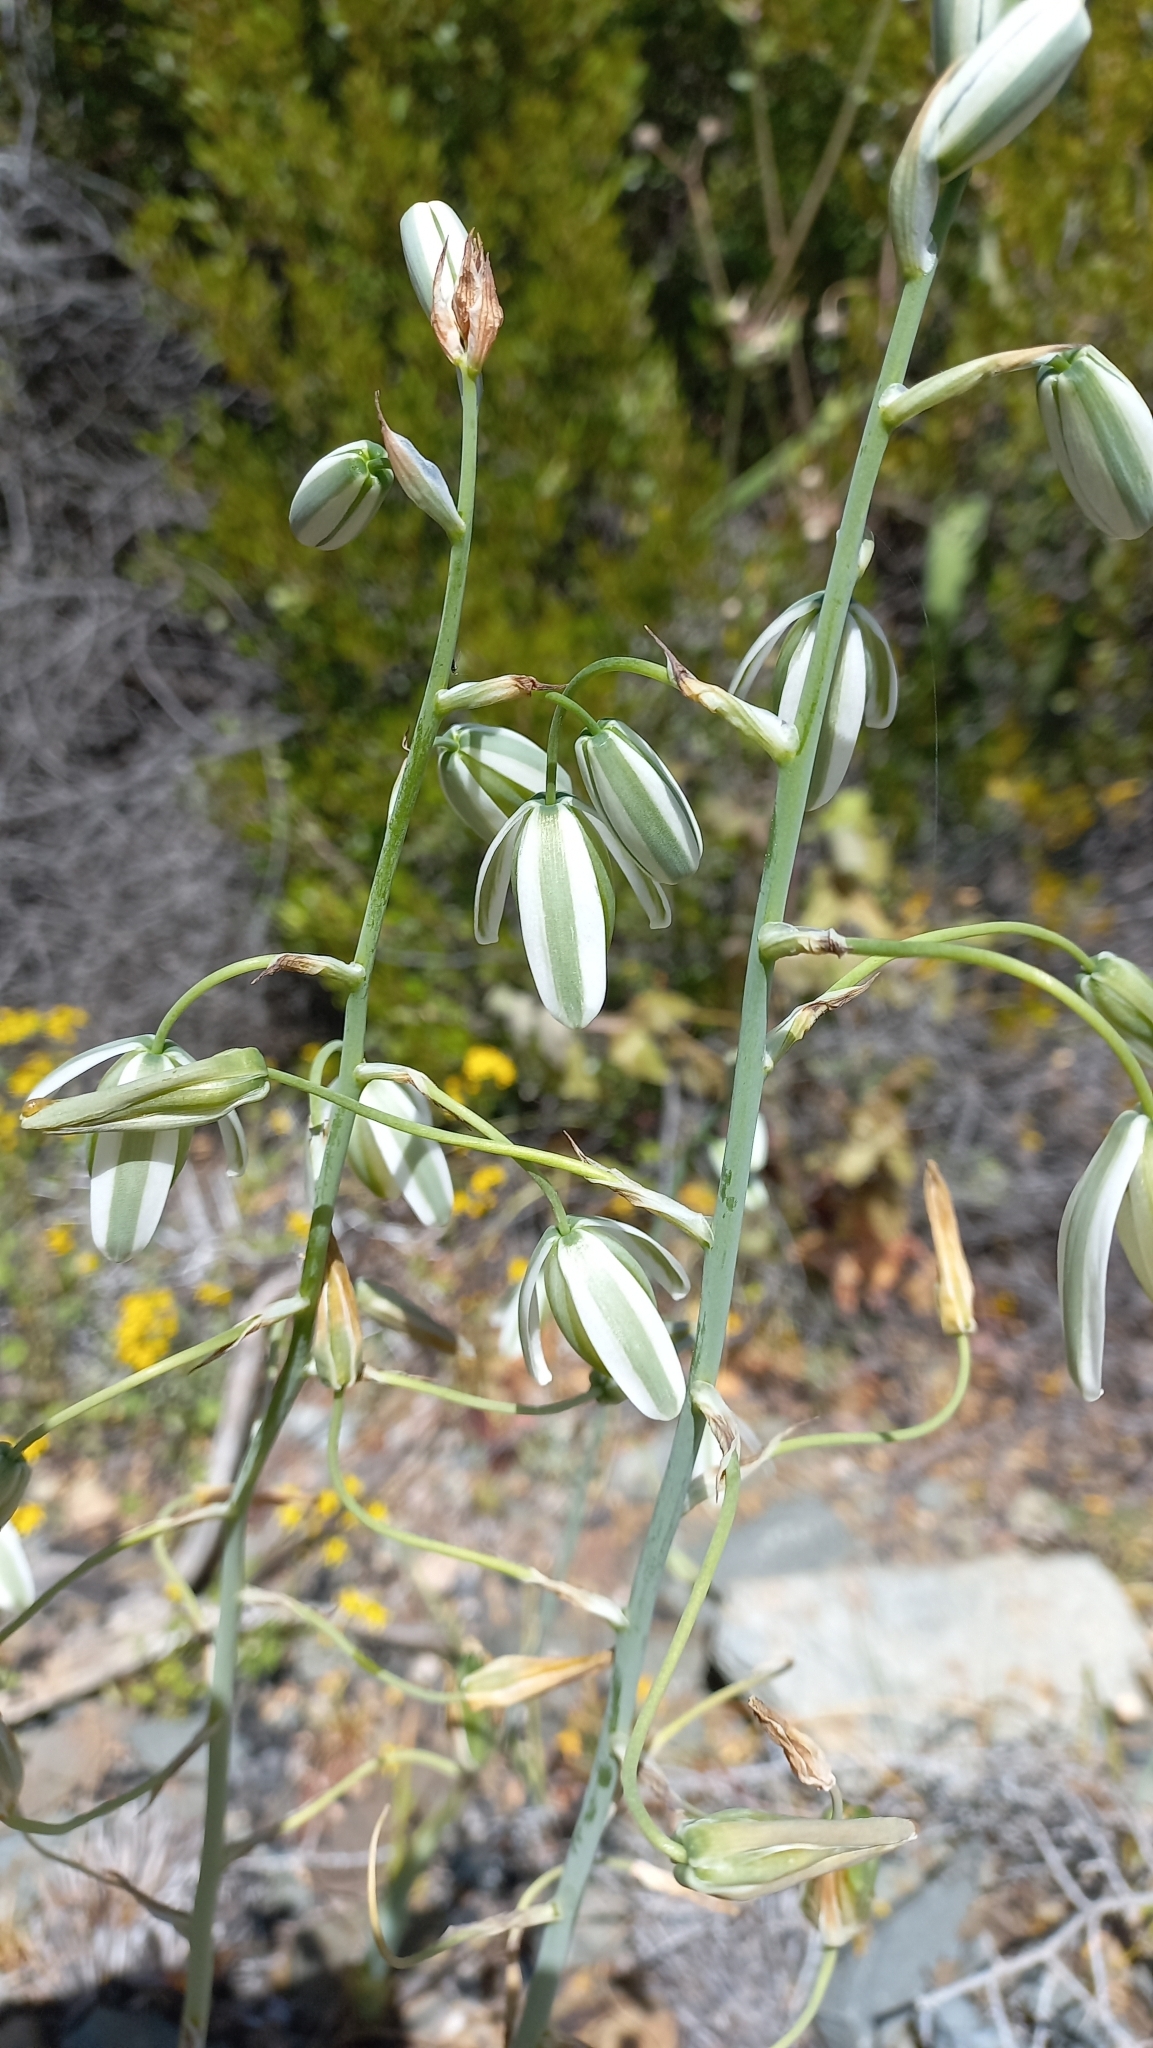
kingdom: Plantae
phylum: Tracheophyta
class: Liliopsida
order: Asparagales
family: Asparagaceae
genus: Albuca
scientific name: Albuca canadensis
